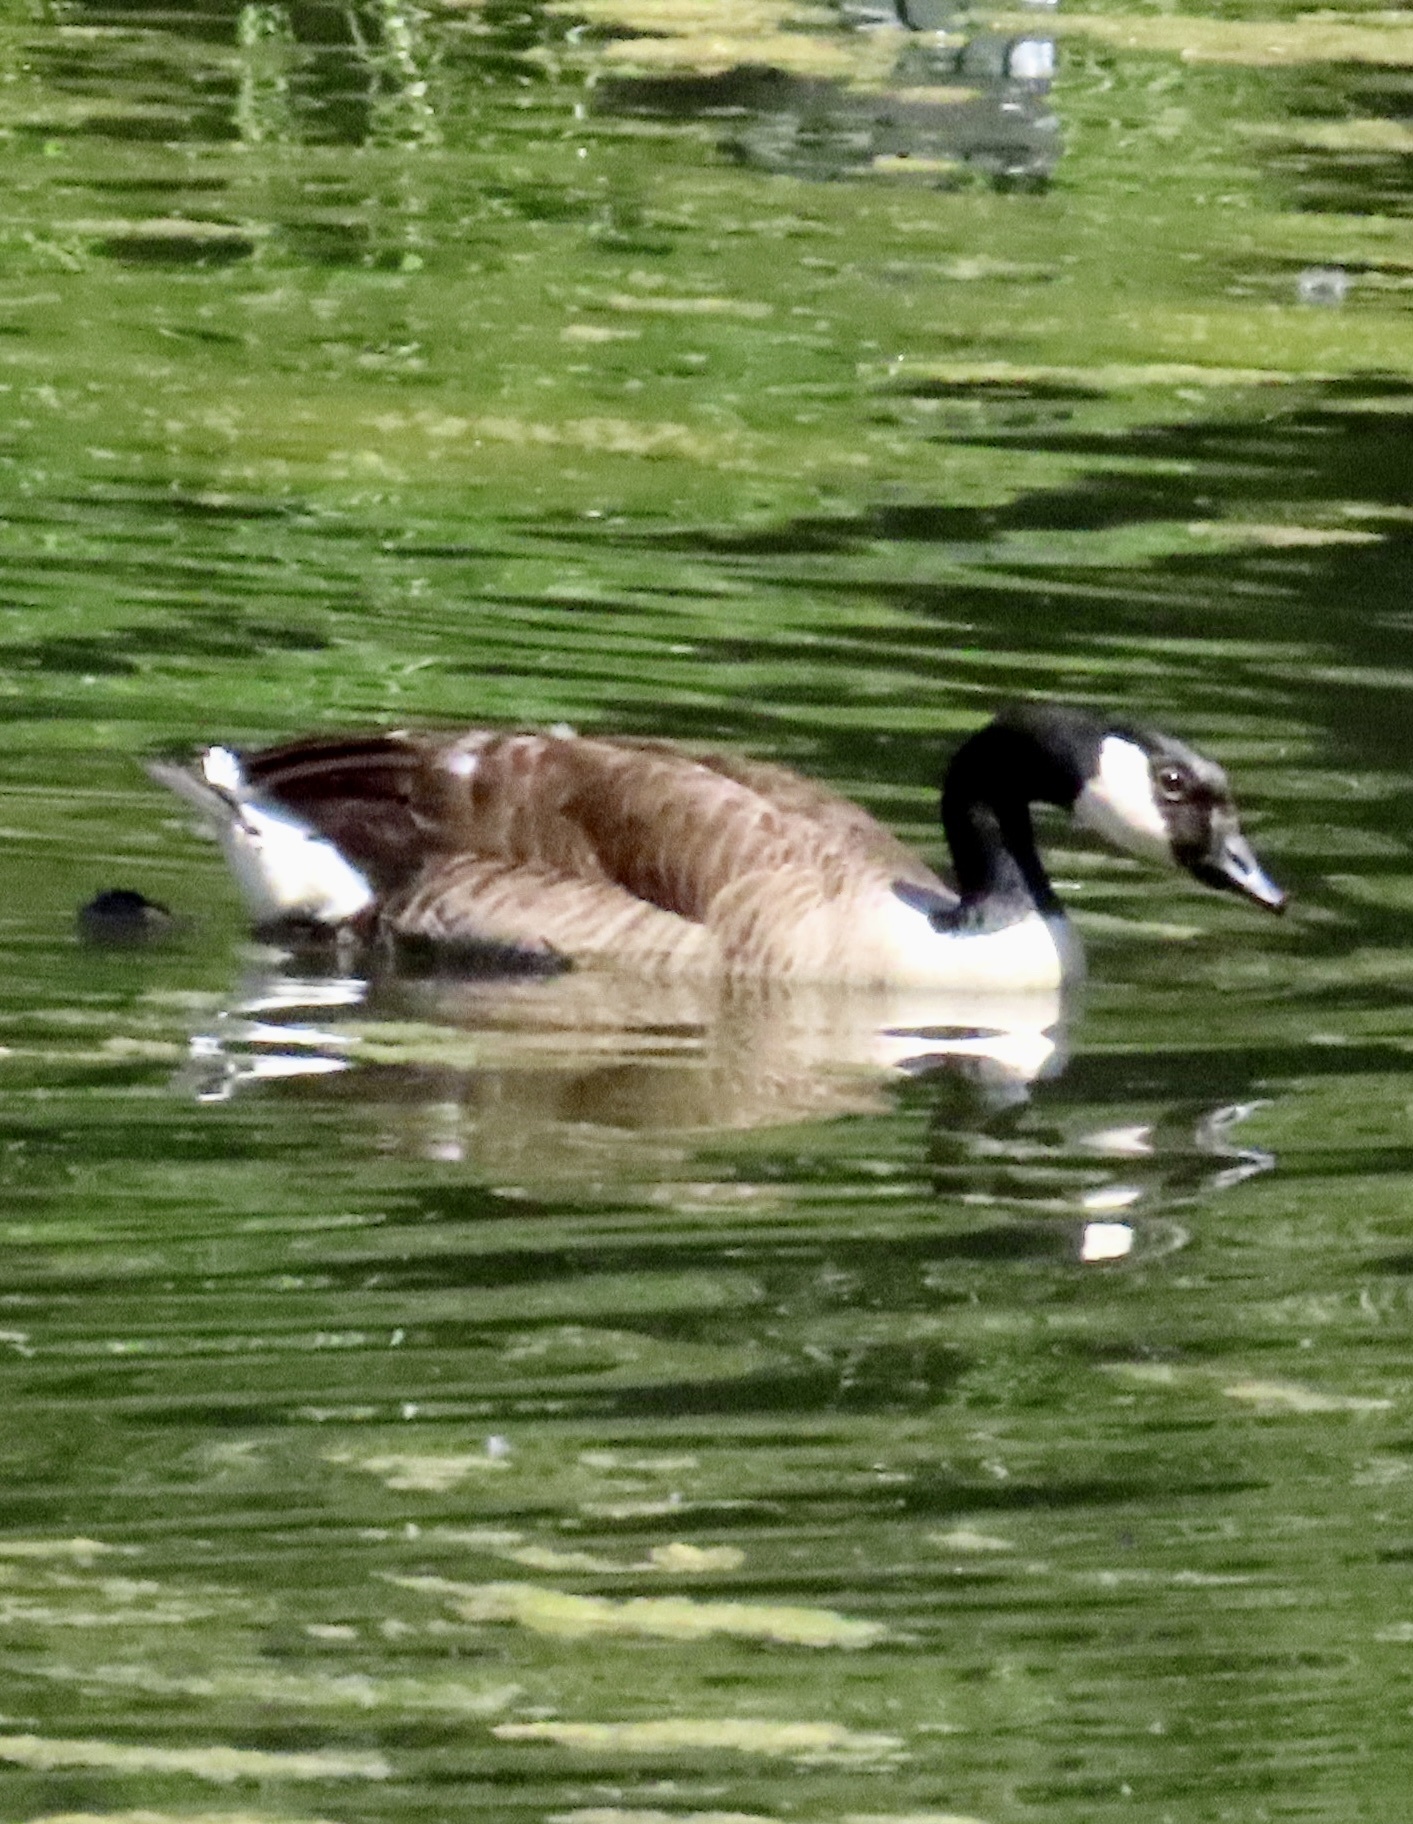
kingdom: Animalia
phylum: Chordata
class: Aves
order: Anseriformes
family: Anatidae
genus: Branta
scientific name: Branta canadensis
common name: Canada goose
